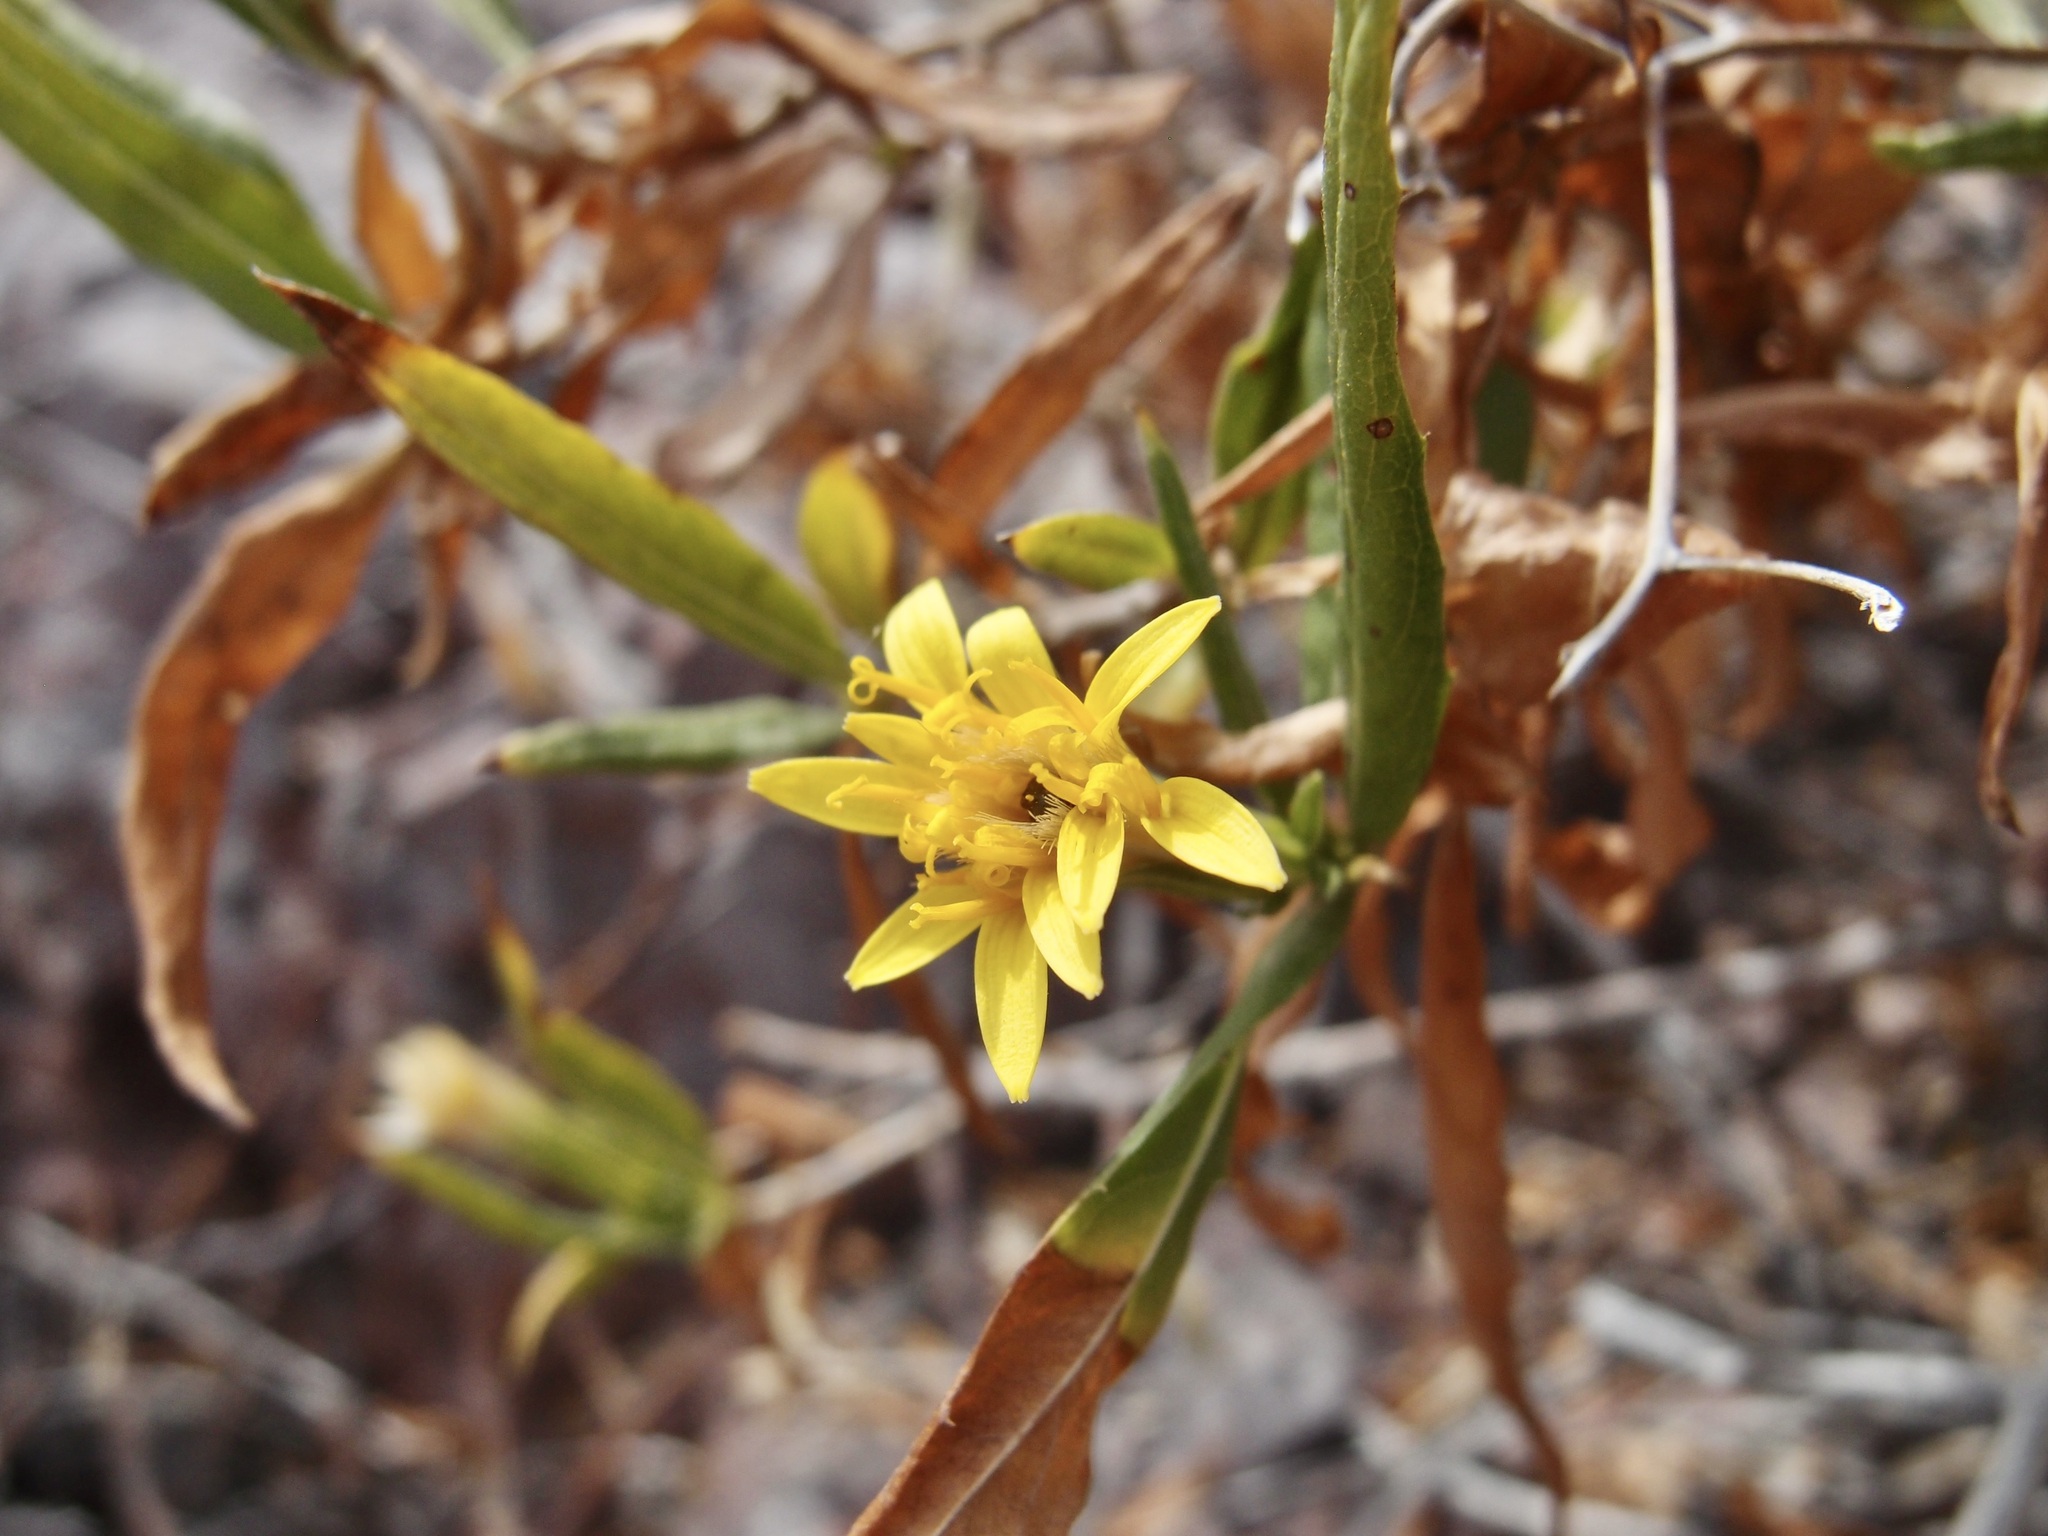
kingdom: Plantae
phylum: Tracheophyta
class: Magnoliopsida
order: Asterales
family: Asteraceae
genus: Trixis
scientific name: Trixis californica
